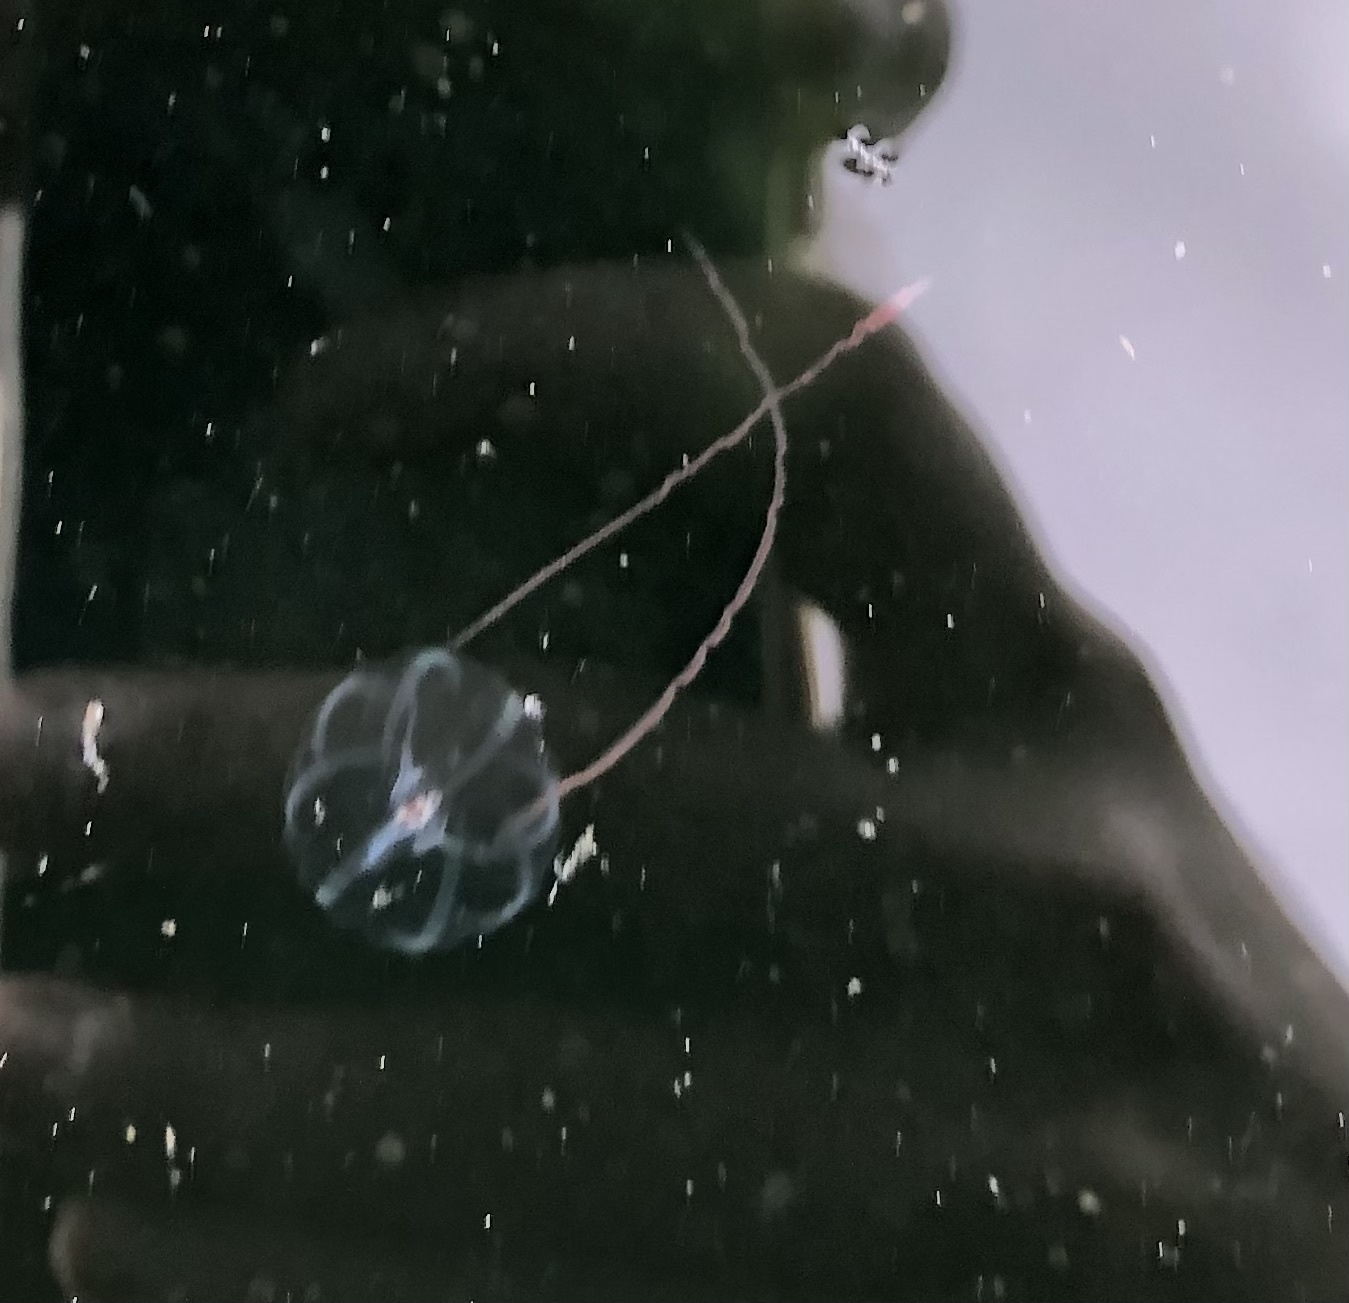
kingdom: Animalia
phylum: Ctenophora
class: Tentaculata
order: Cydippida
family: Pleurobrachiidae
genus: Pleurobrachia
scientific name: Pleurobrachia bachei
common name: Pacific sea gooseberry
